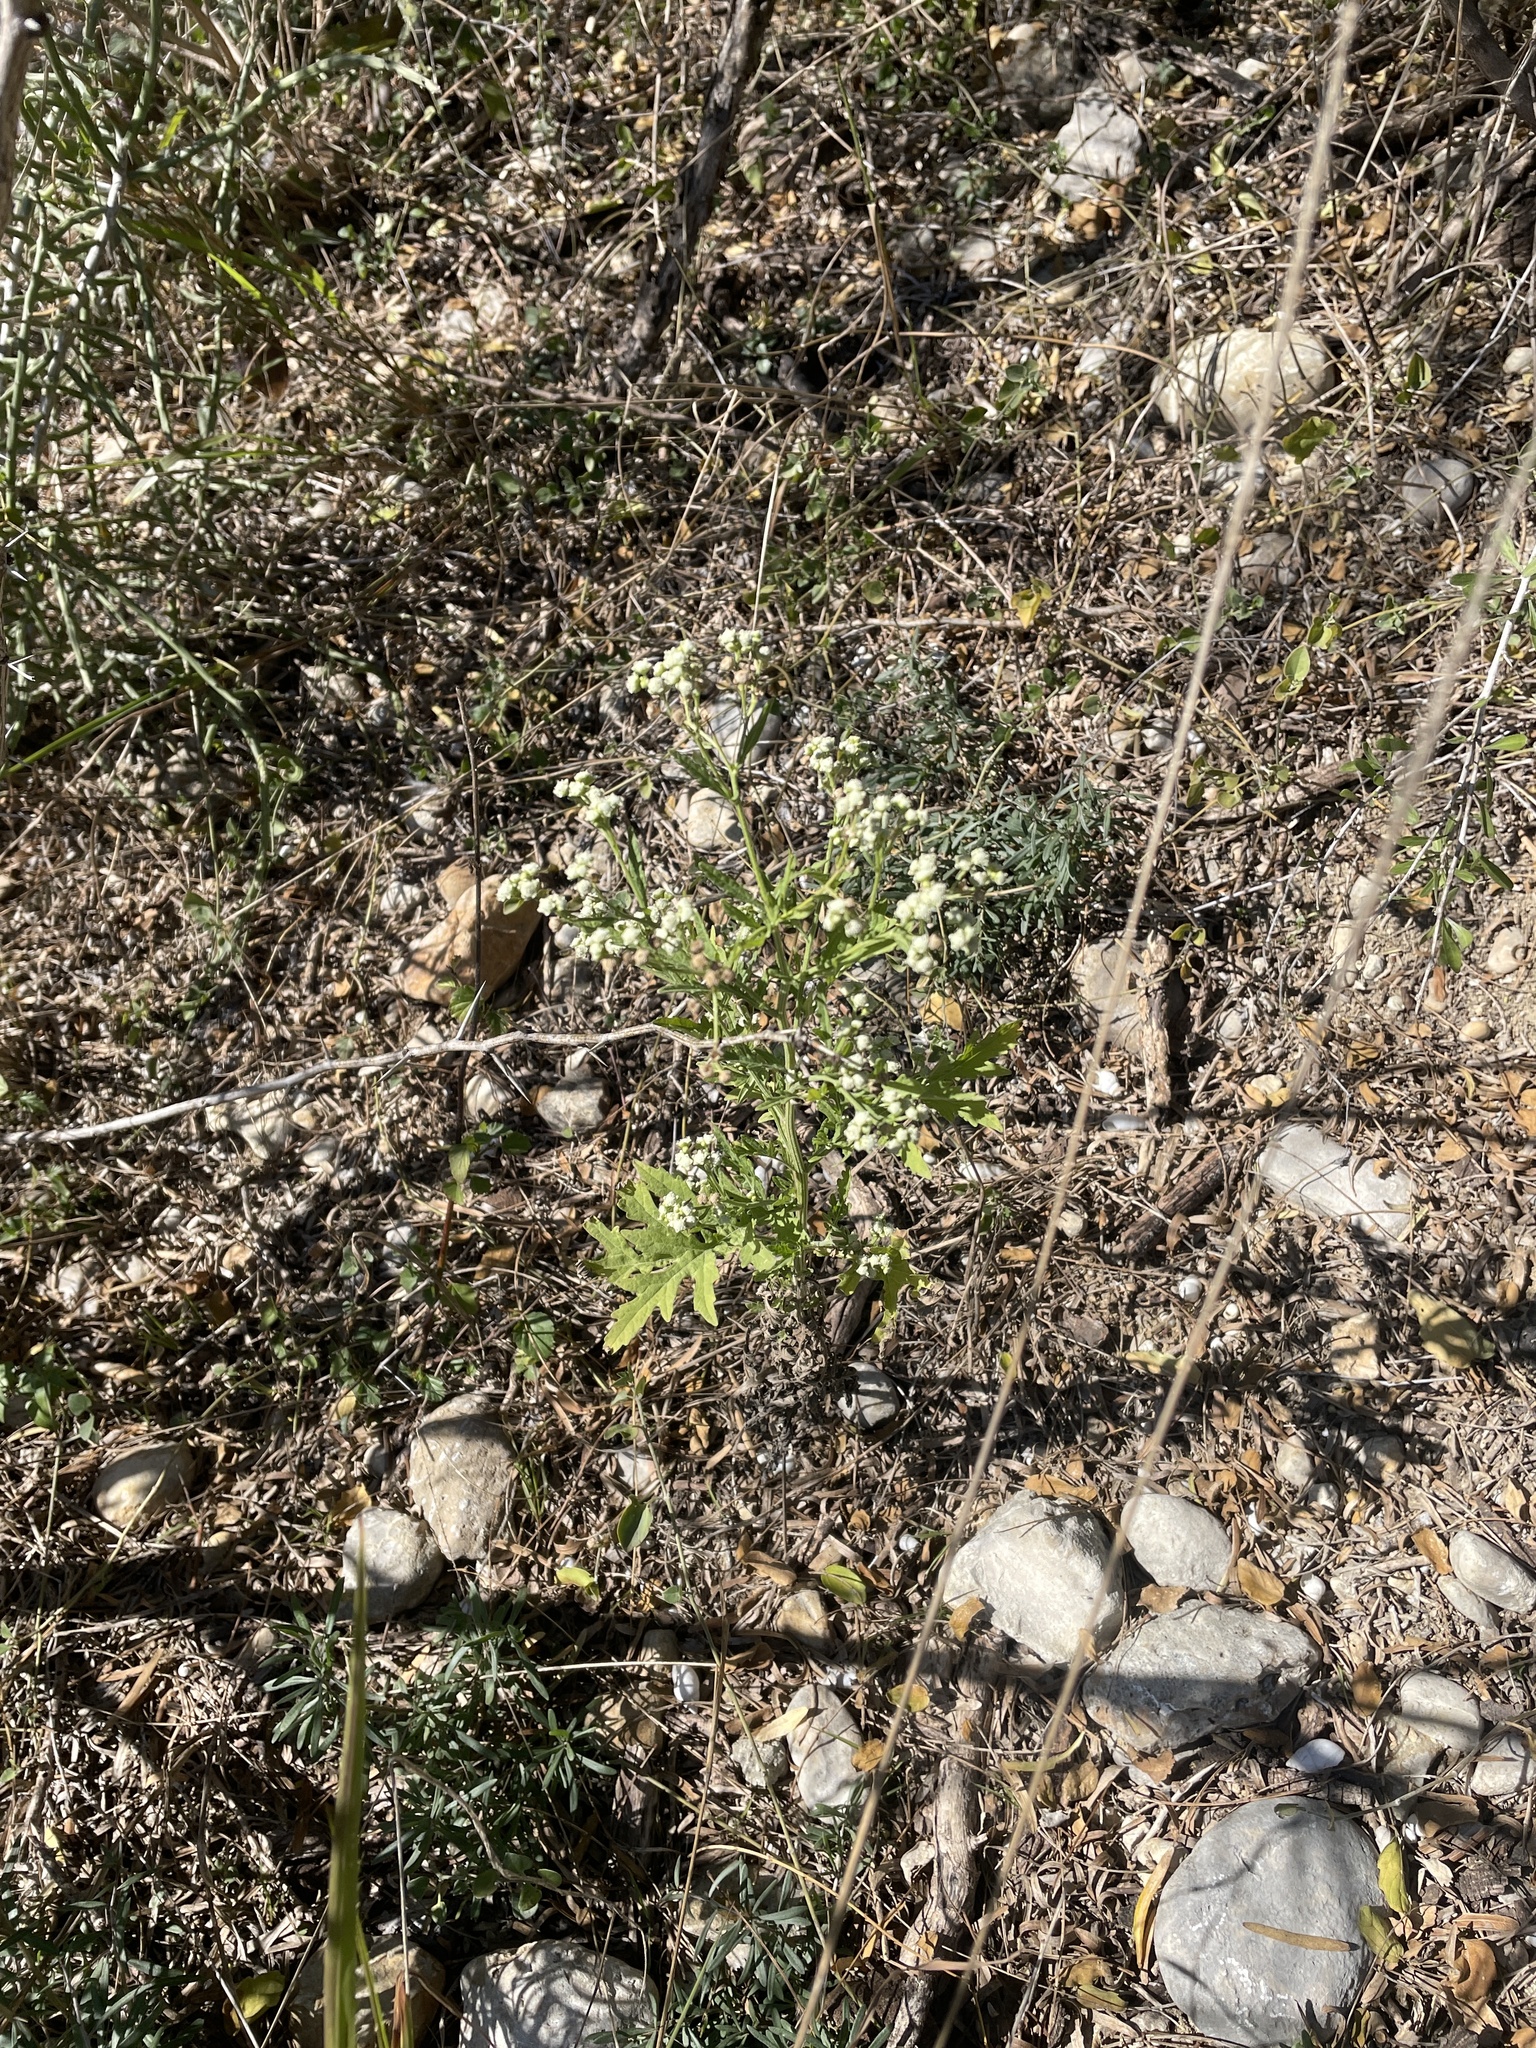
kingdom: Plantae
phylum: Tracheophyta
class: Magnoliopsida
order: Asterales
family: Asteraceae
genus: Parthenium
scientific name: Parthenium hysterophorus
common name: Santa maria feverfew
